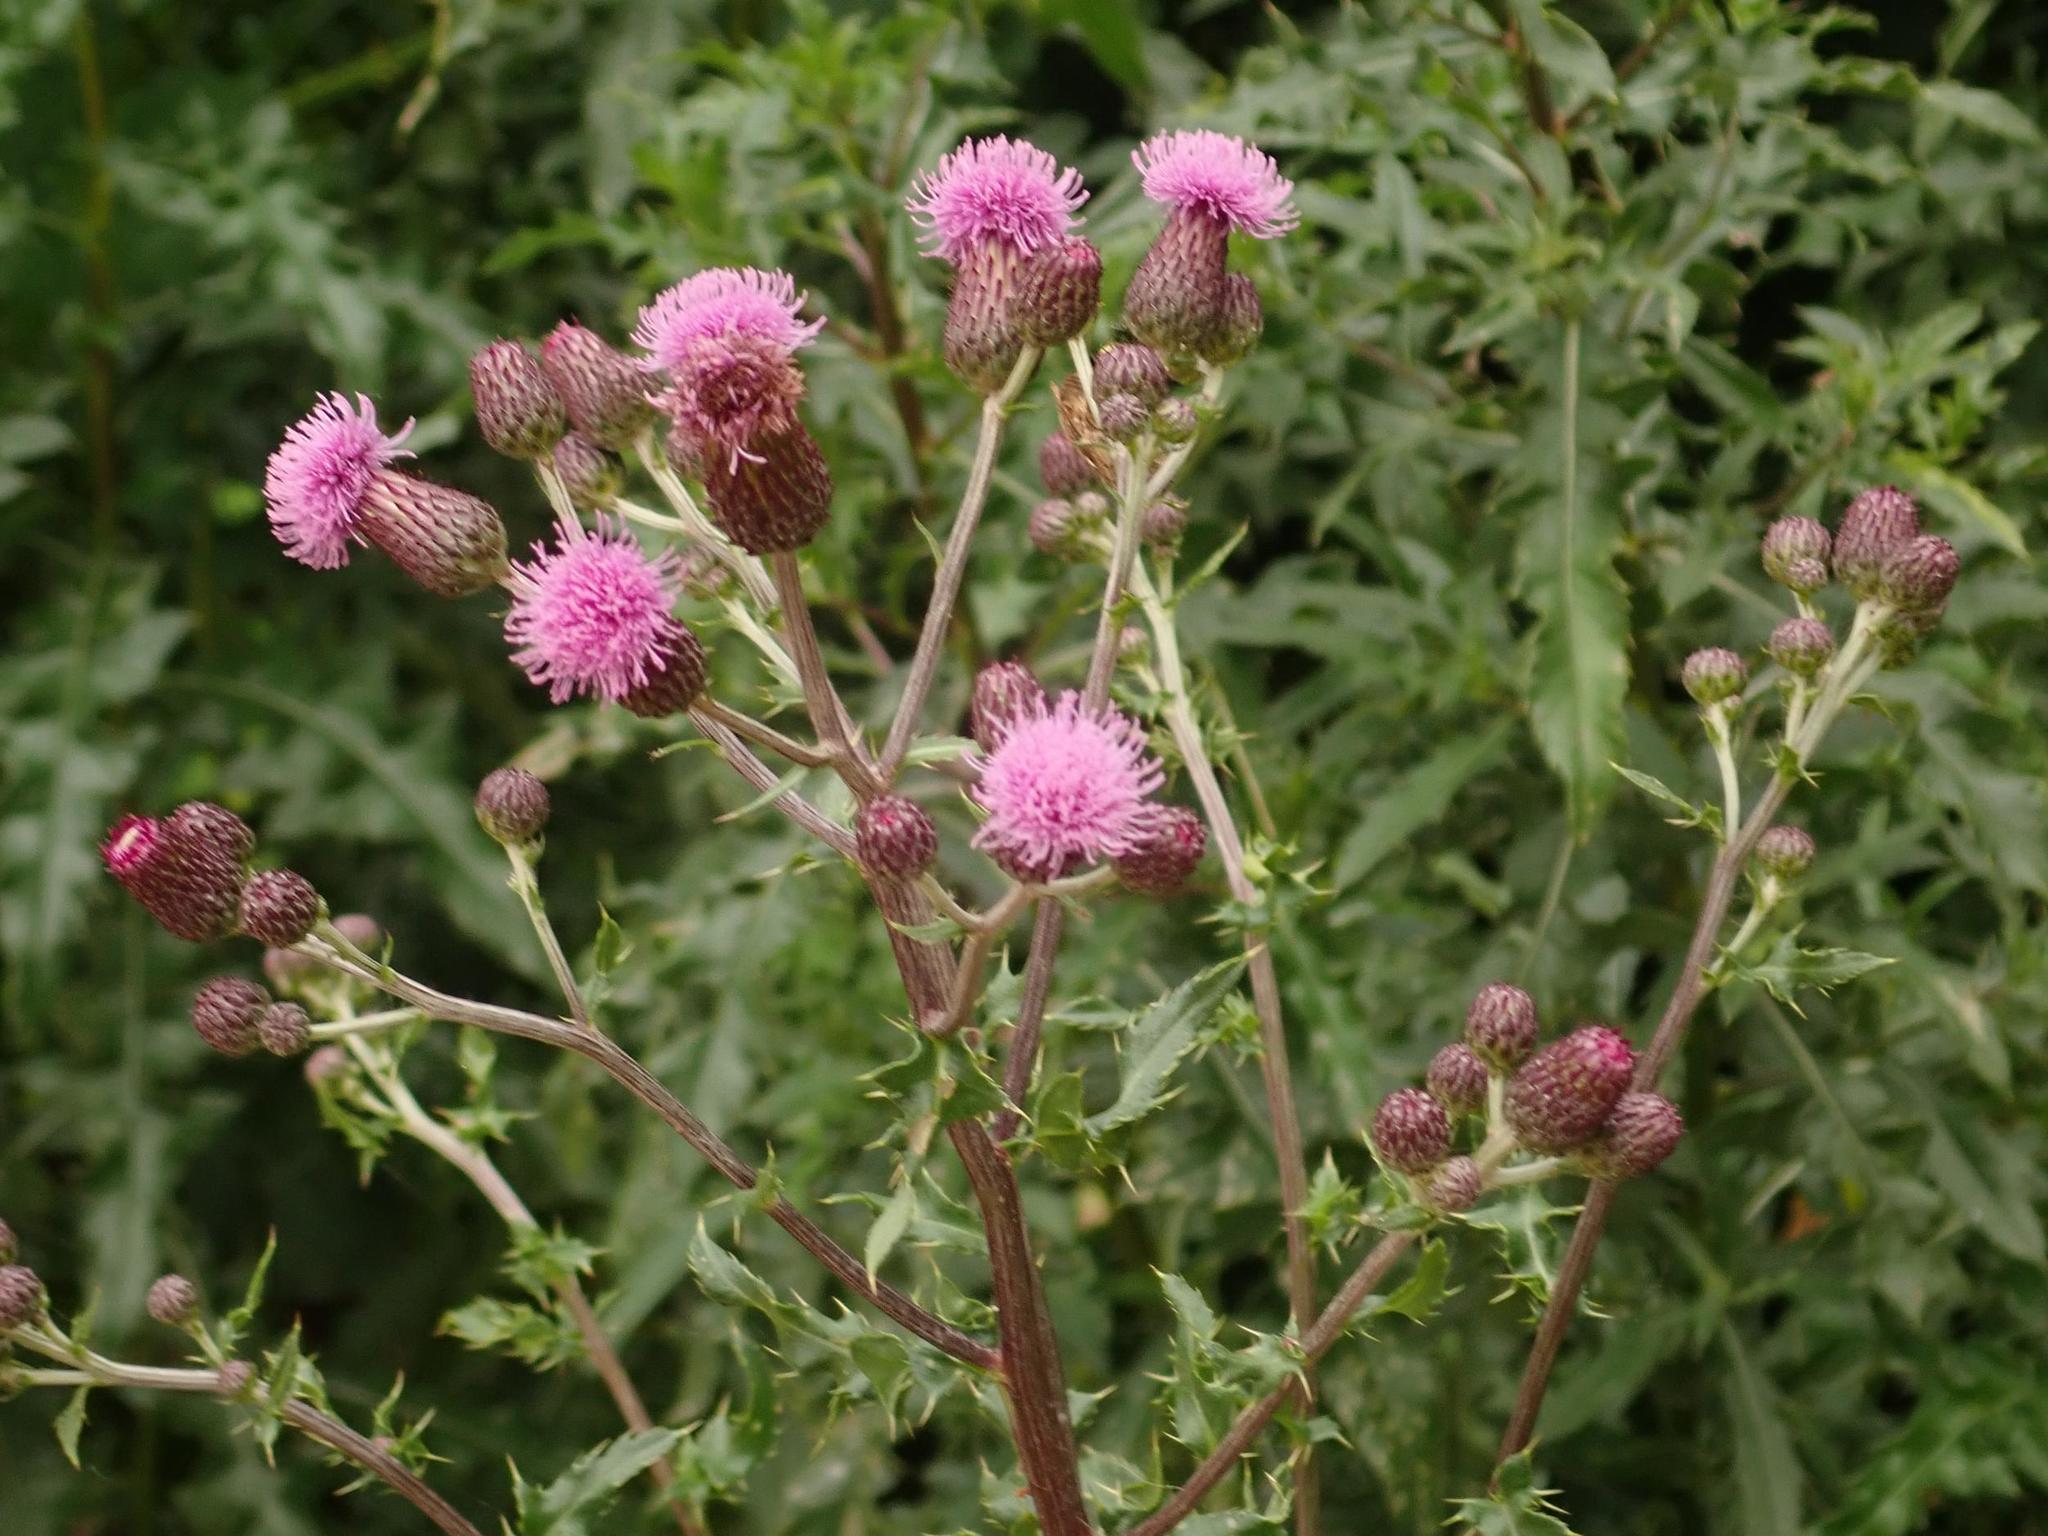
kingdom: Plantae
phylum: Tracheophyta
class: Magnoliopsida
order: Asterales
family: Asteraceae
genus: Cirsium
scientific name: Cirsium arvense
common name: Creeping thistle
